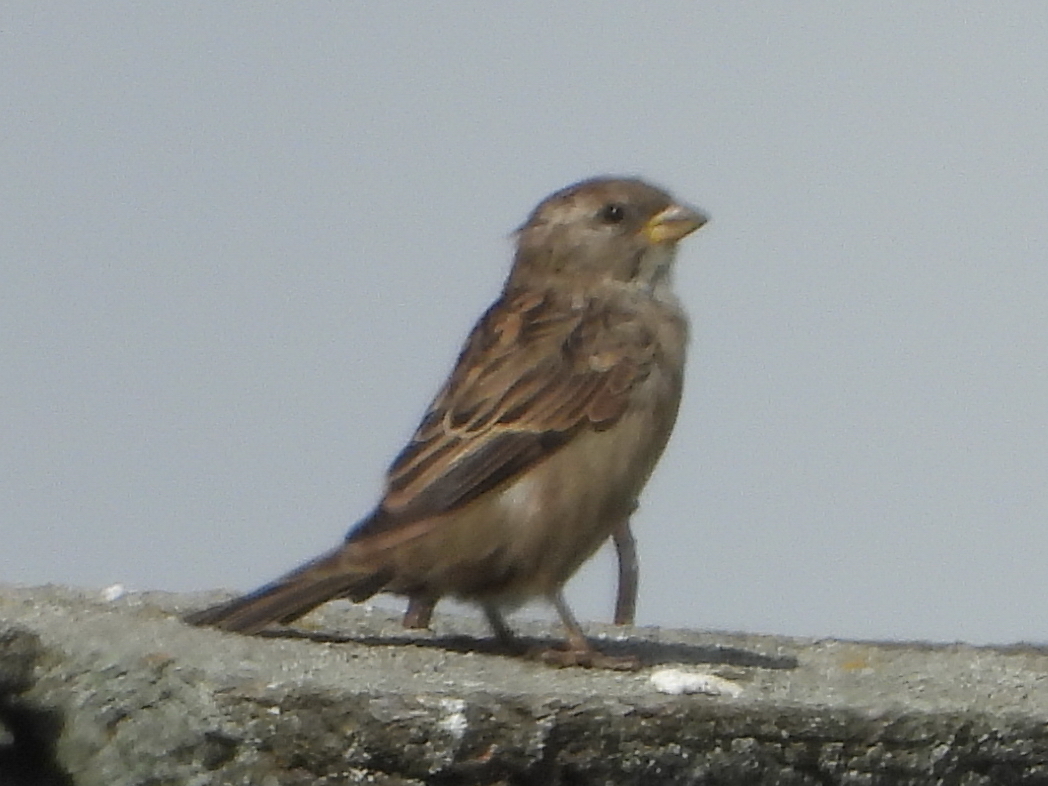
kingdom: Animalia
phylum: Chordata
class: Aves
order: Passeriformes
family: Passeridae
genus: Passer
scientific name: Passer domesticus
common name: House sparrow
